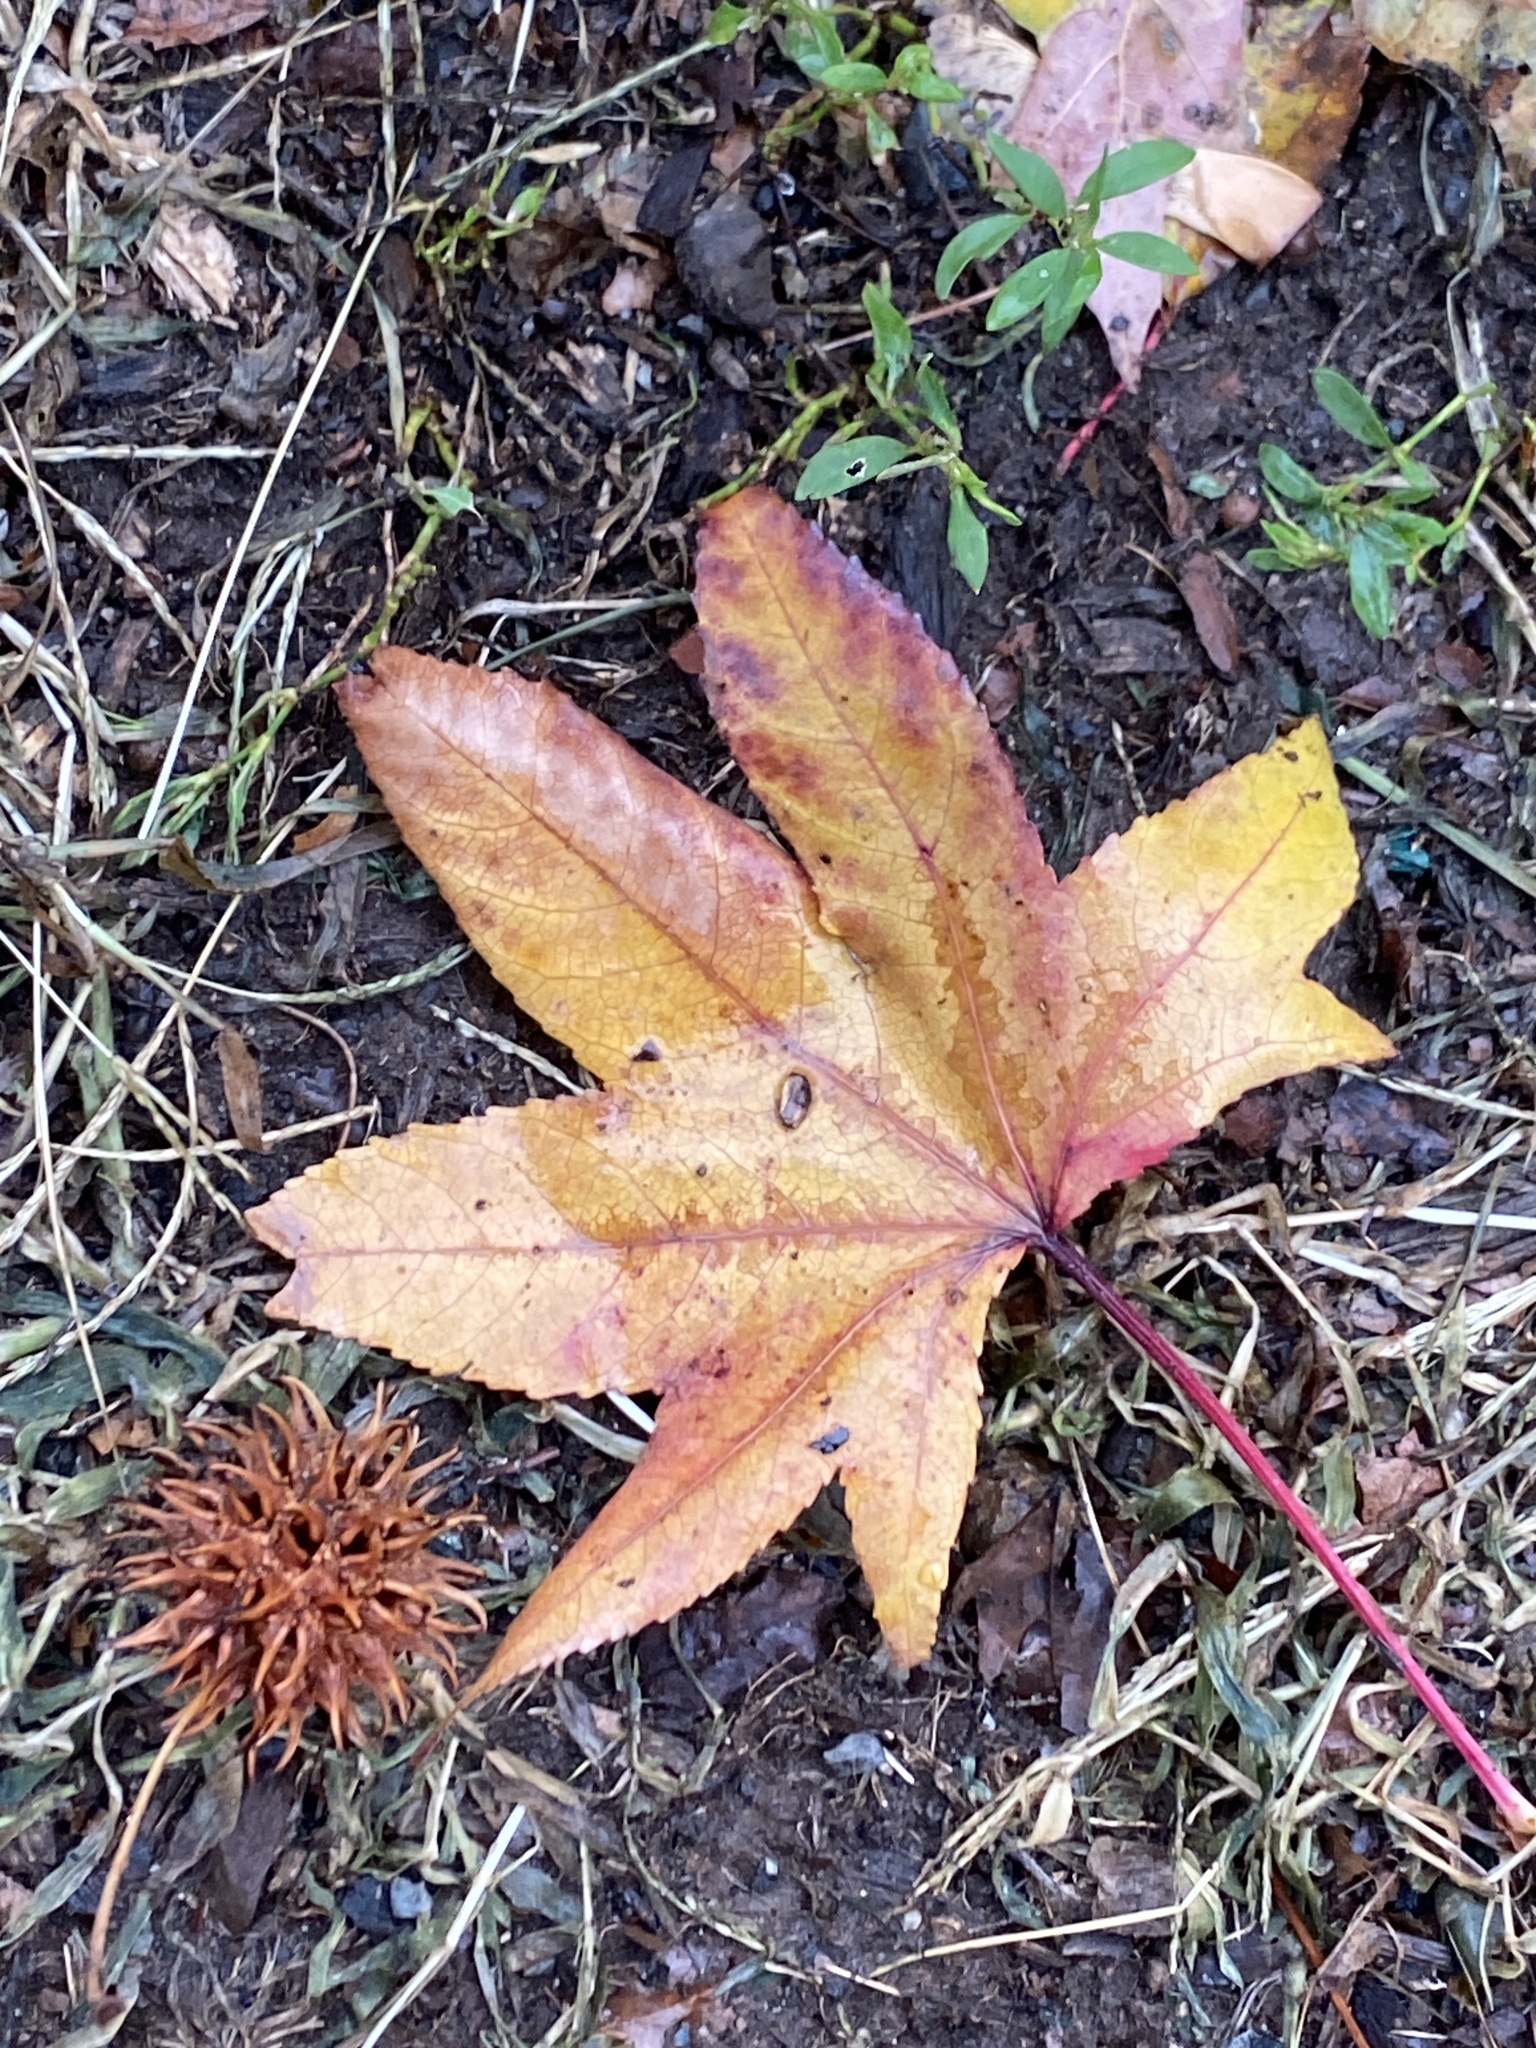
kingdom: Plantae
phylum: Tracheophyta
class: Magnoliopsida
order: Saxifragales
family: Altingiaceae
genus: Liquidambar
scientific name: Liquidambar styraciflua
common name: Sweet gum
